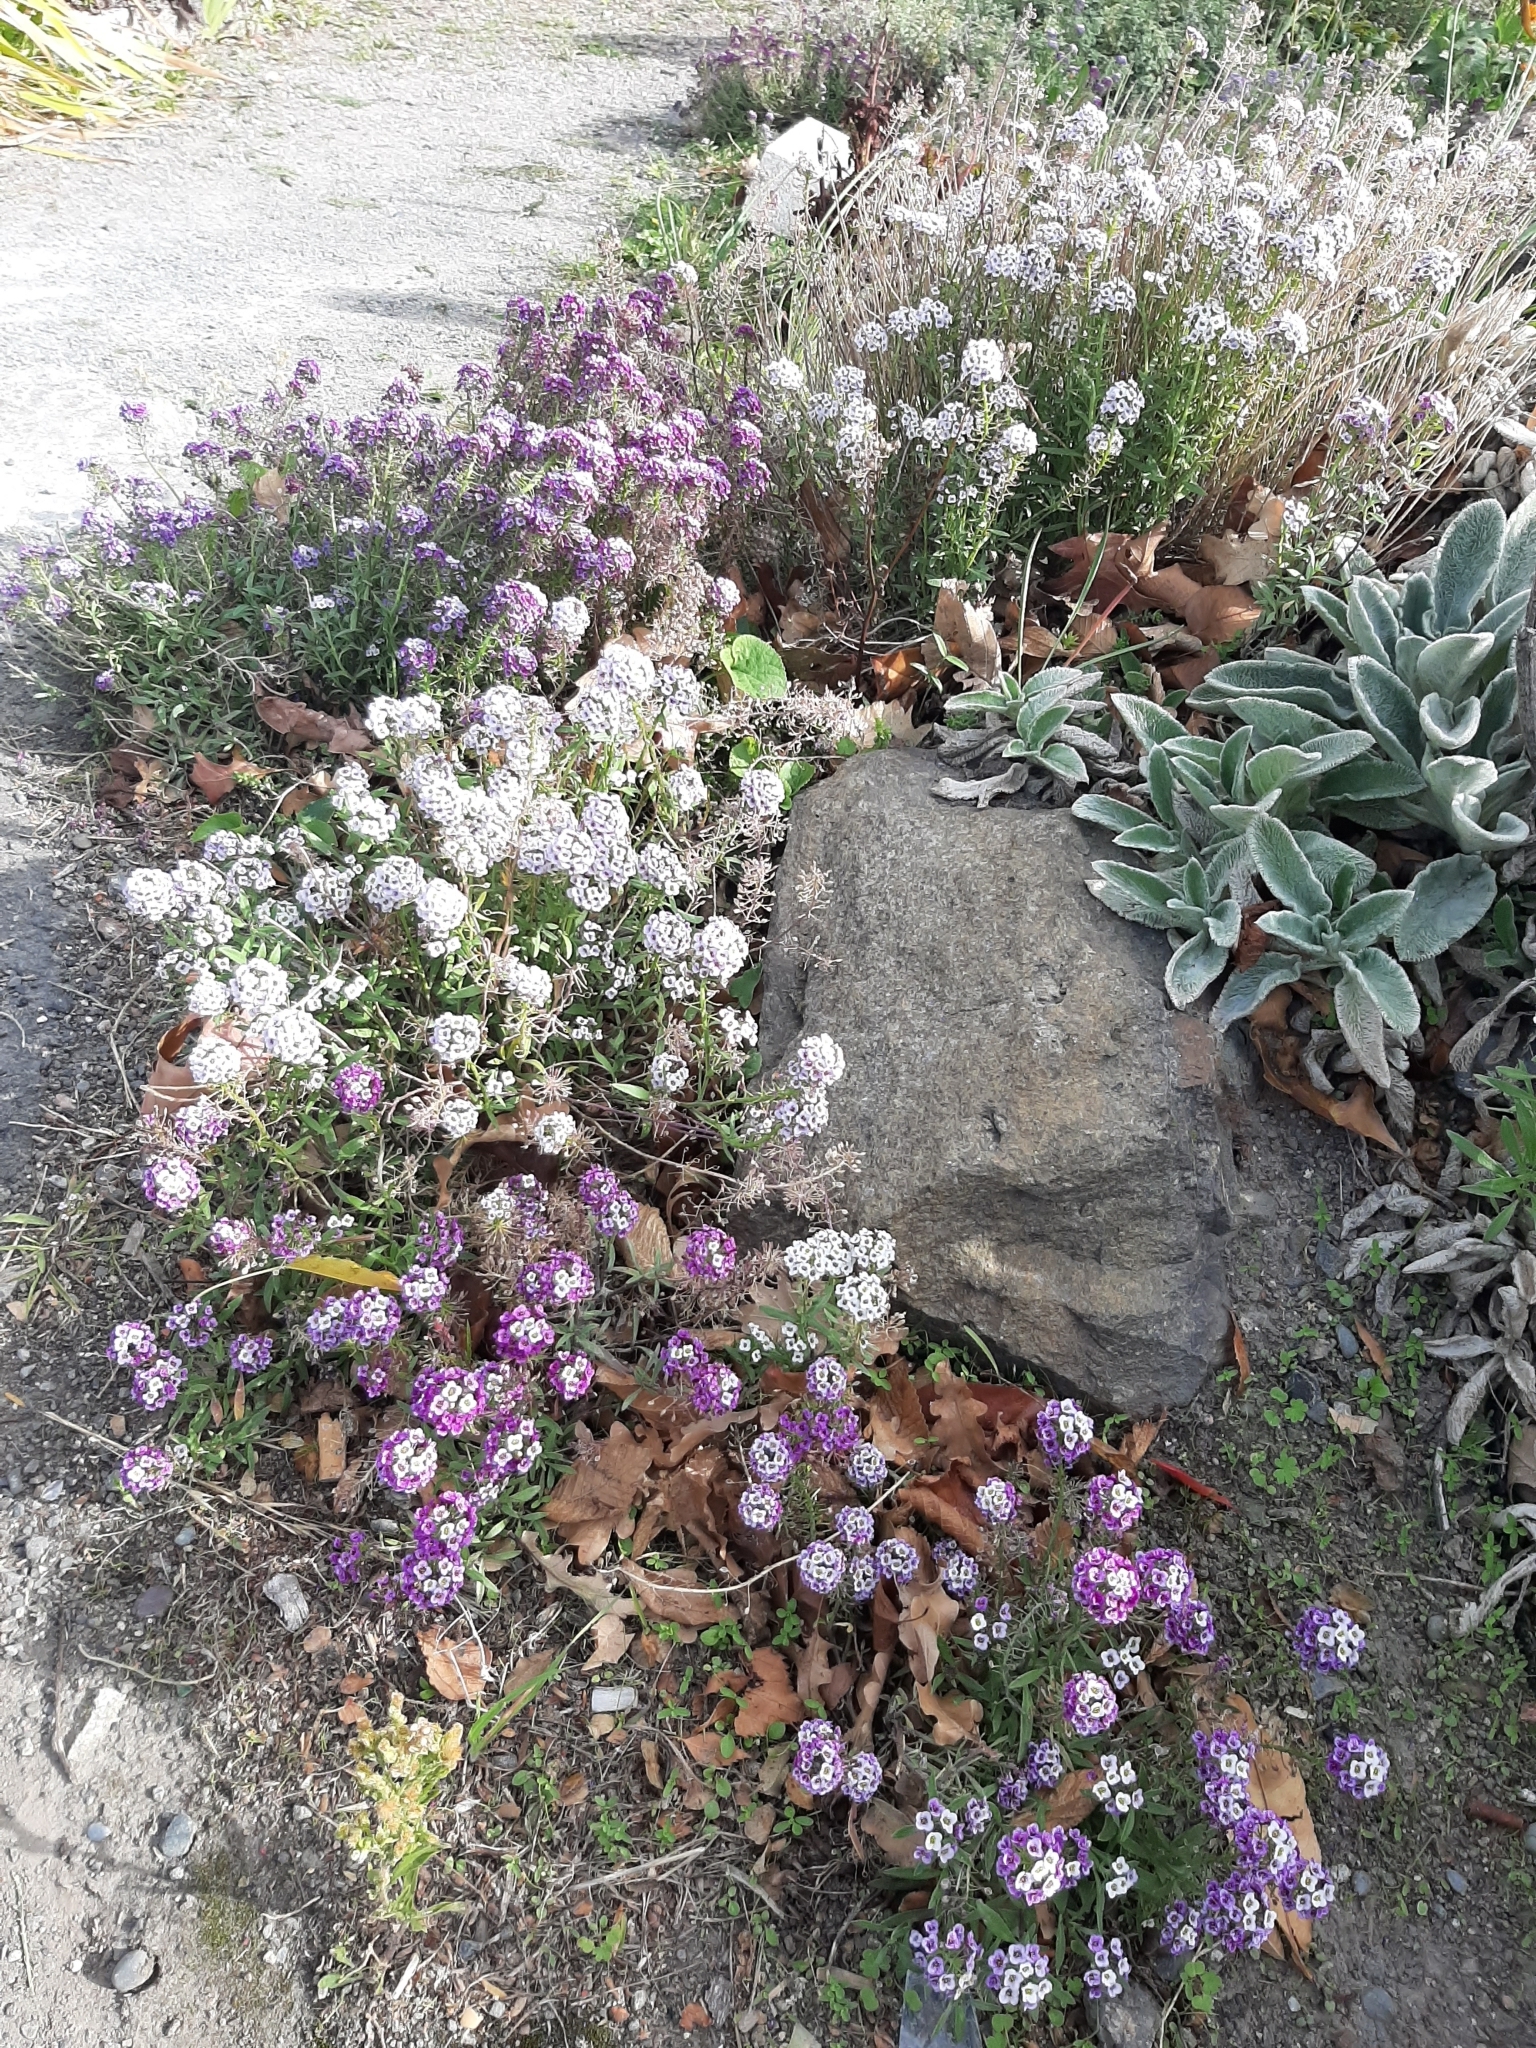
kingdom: Plantae
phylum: Tracheophyta
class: Magnoliopsida
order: Brassicales
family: Brassicaceae
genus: Lobularia
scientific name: Lobularia maritima
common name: Sweet alison
